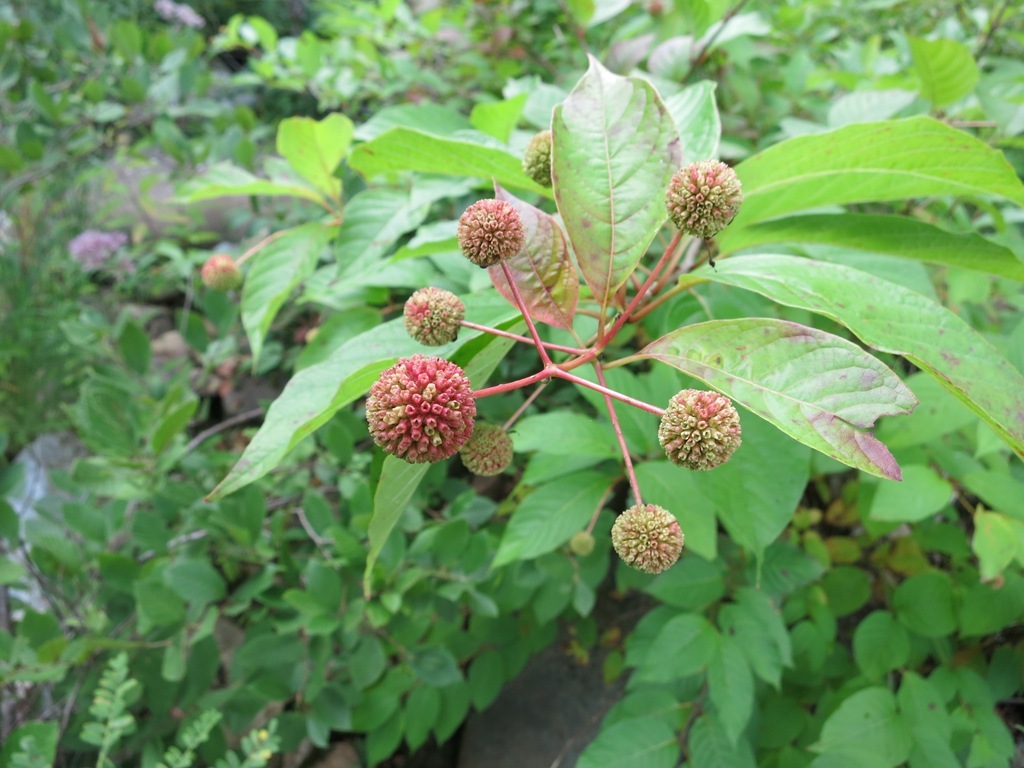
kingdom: Plantae
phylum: Tracheophyta
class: Magnoliopsida
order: Gentianales
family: Rubiaceae
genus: Cephalanthus
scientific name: Cephalanthus occidentalis
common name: Button-willow
